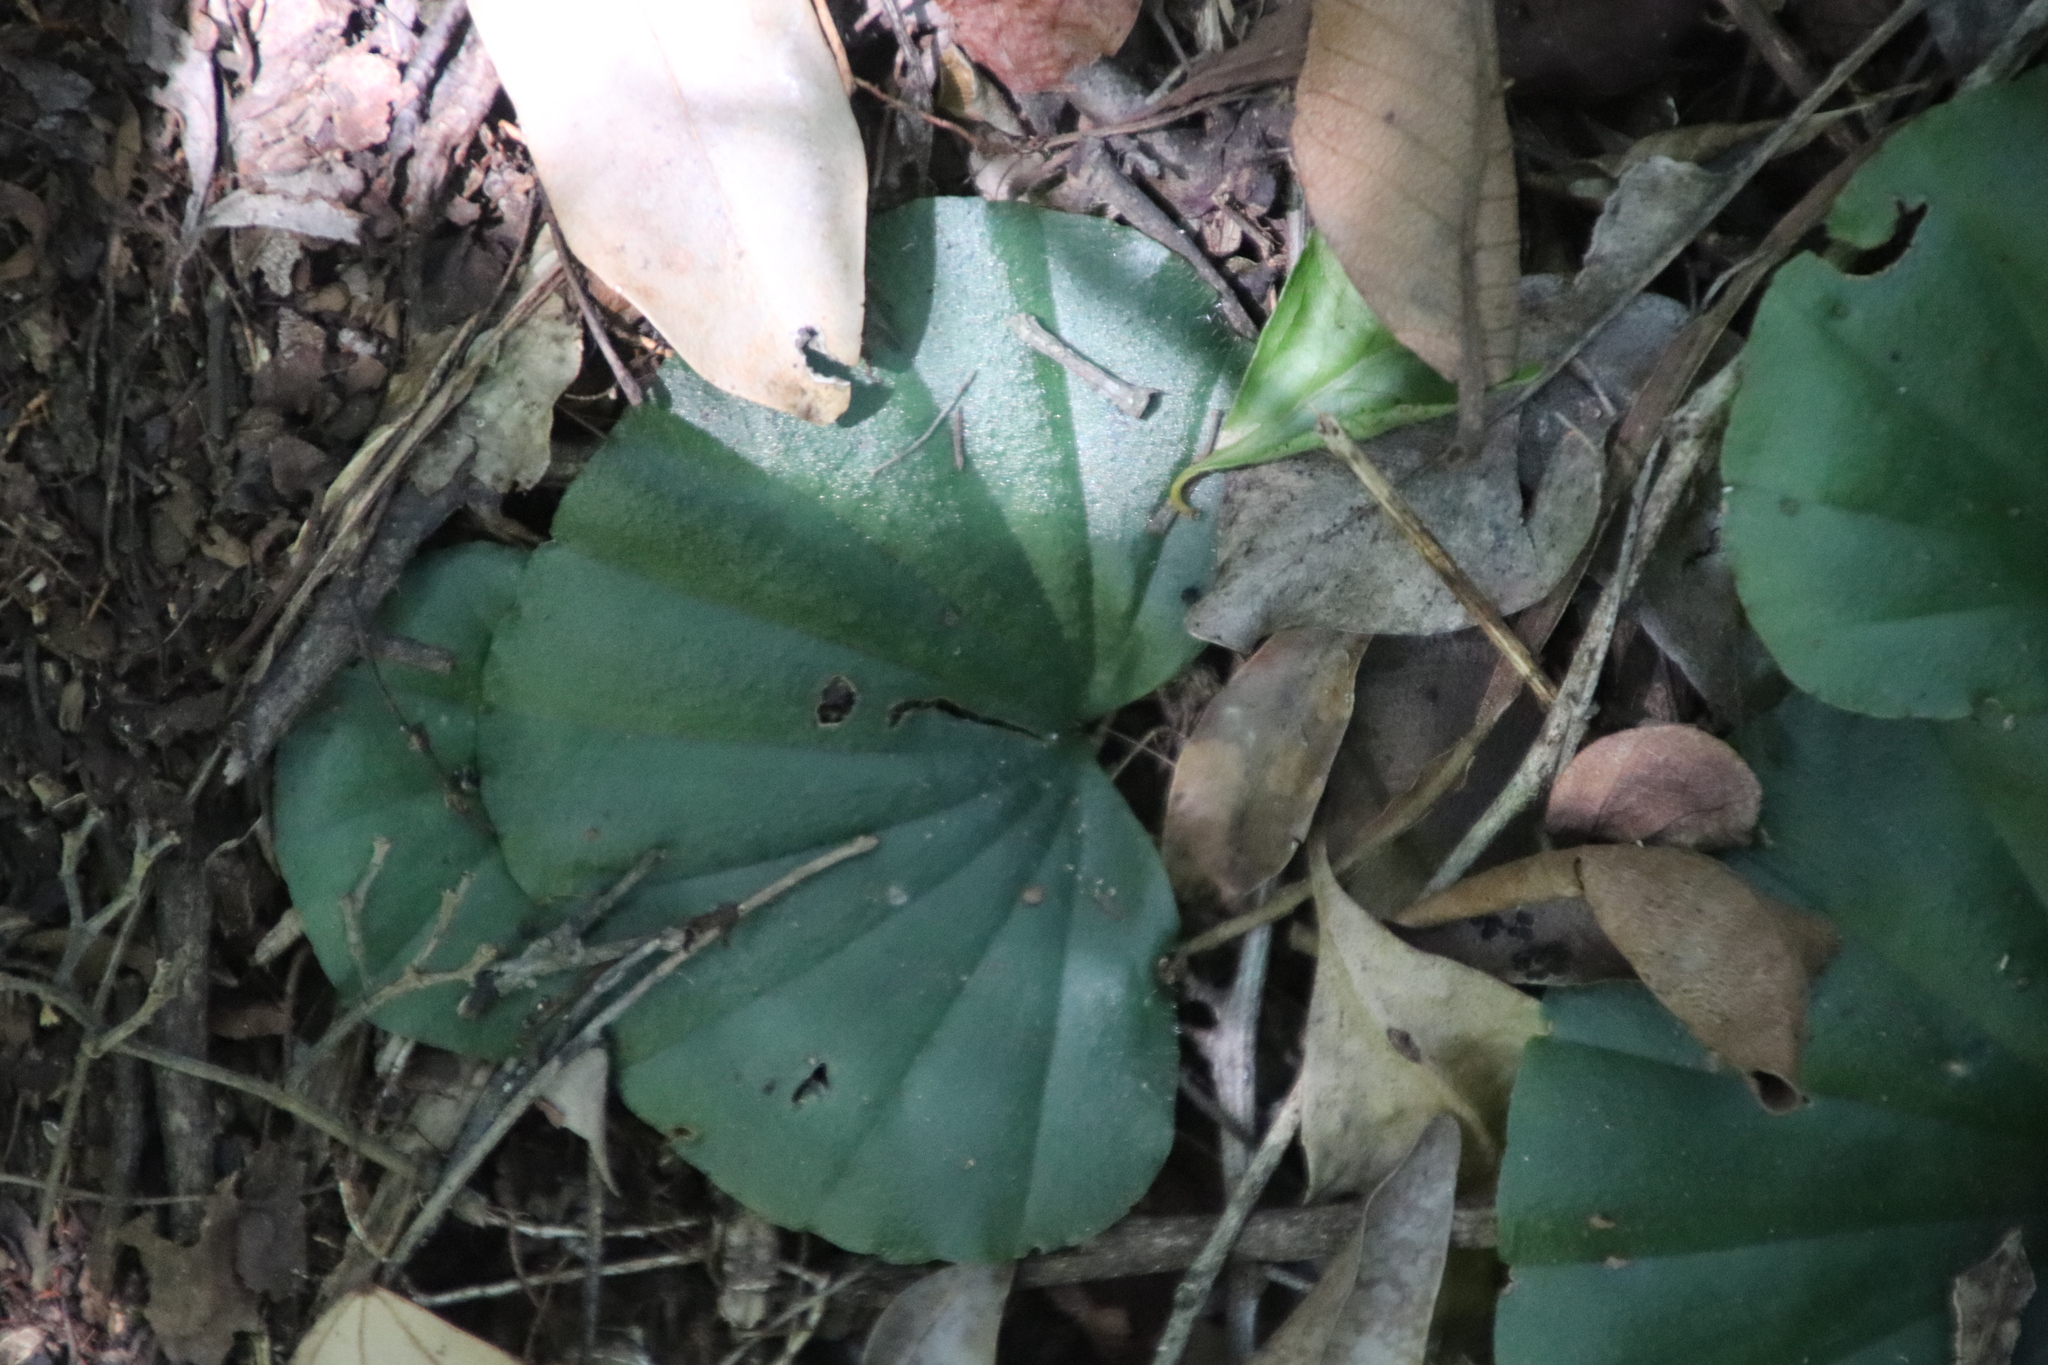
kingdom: Plantae
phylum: Tracheophyta
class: Liliopsida
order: Asparagales
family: Orchidaceae
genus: Nervilia
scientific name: Nervilia simplex
